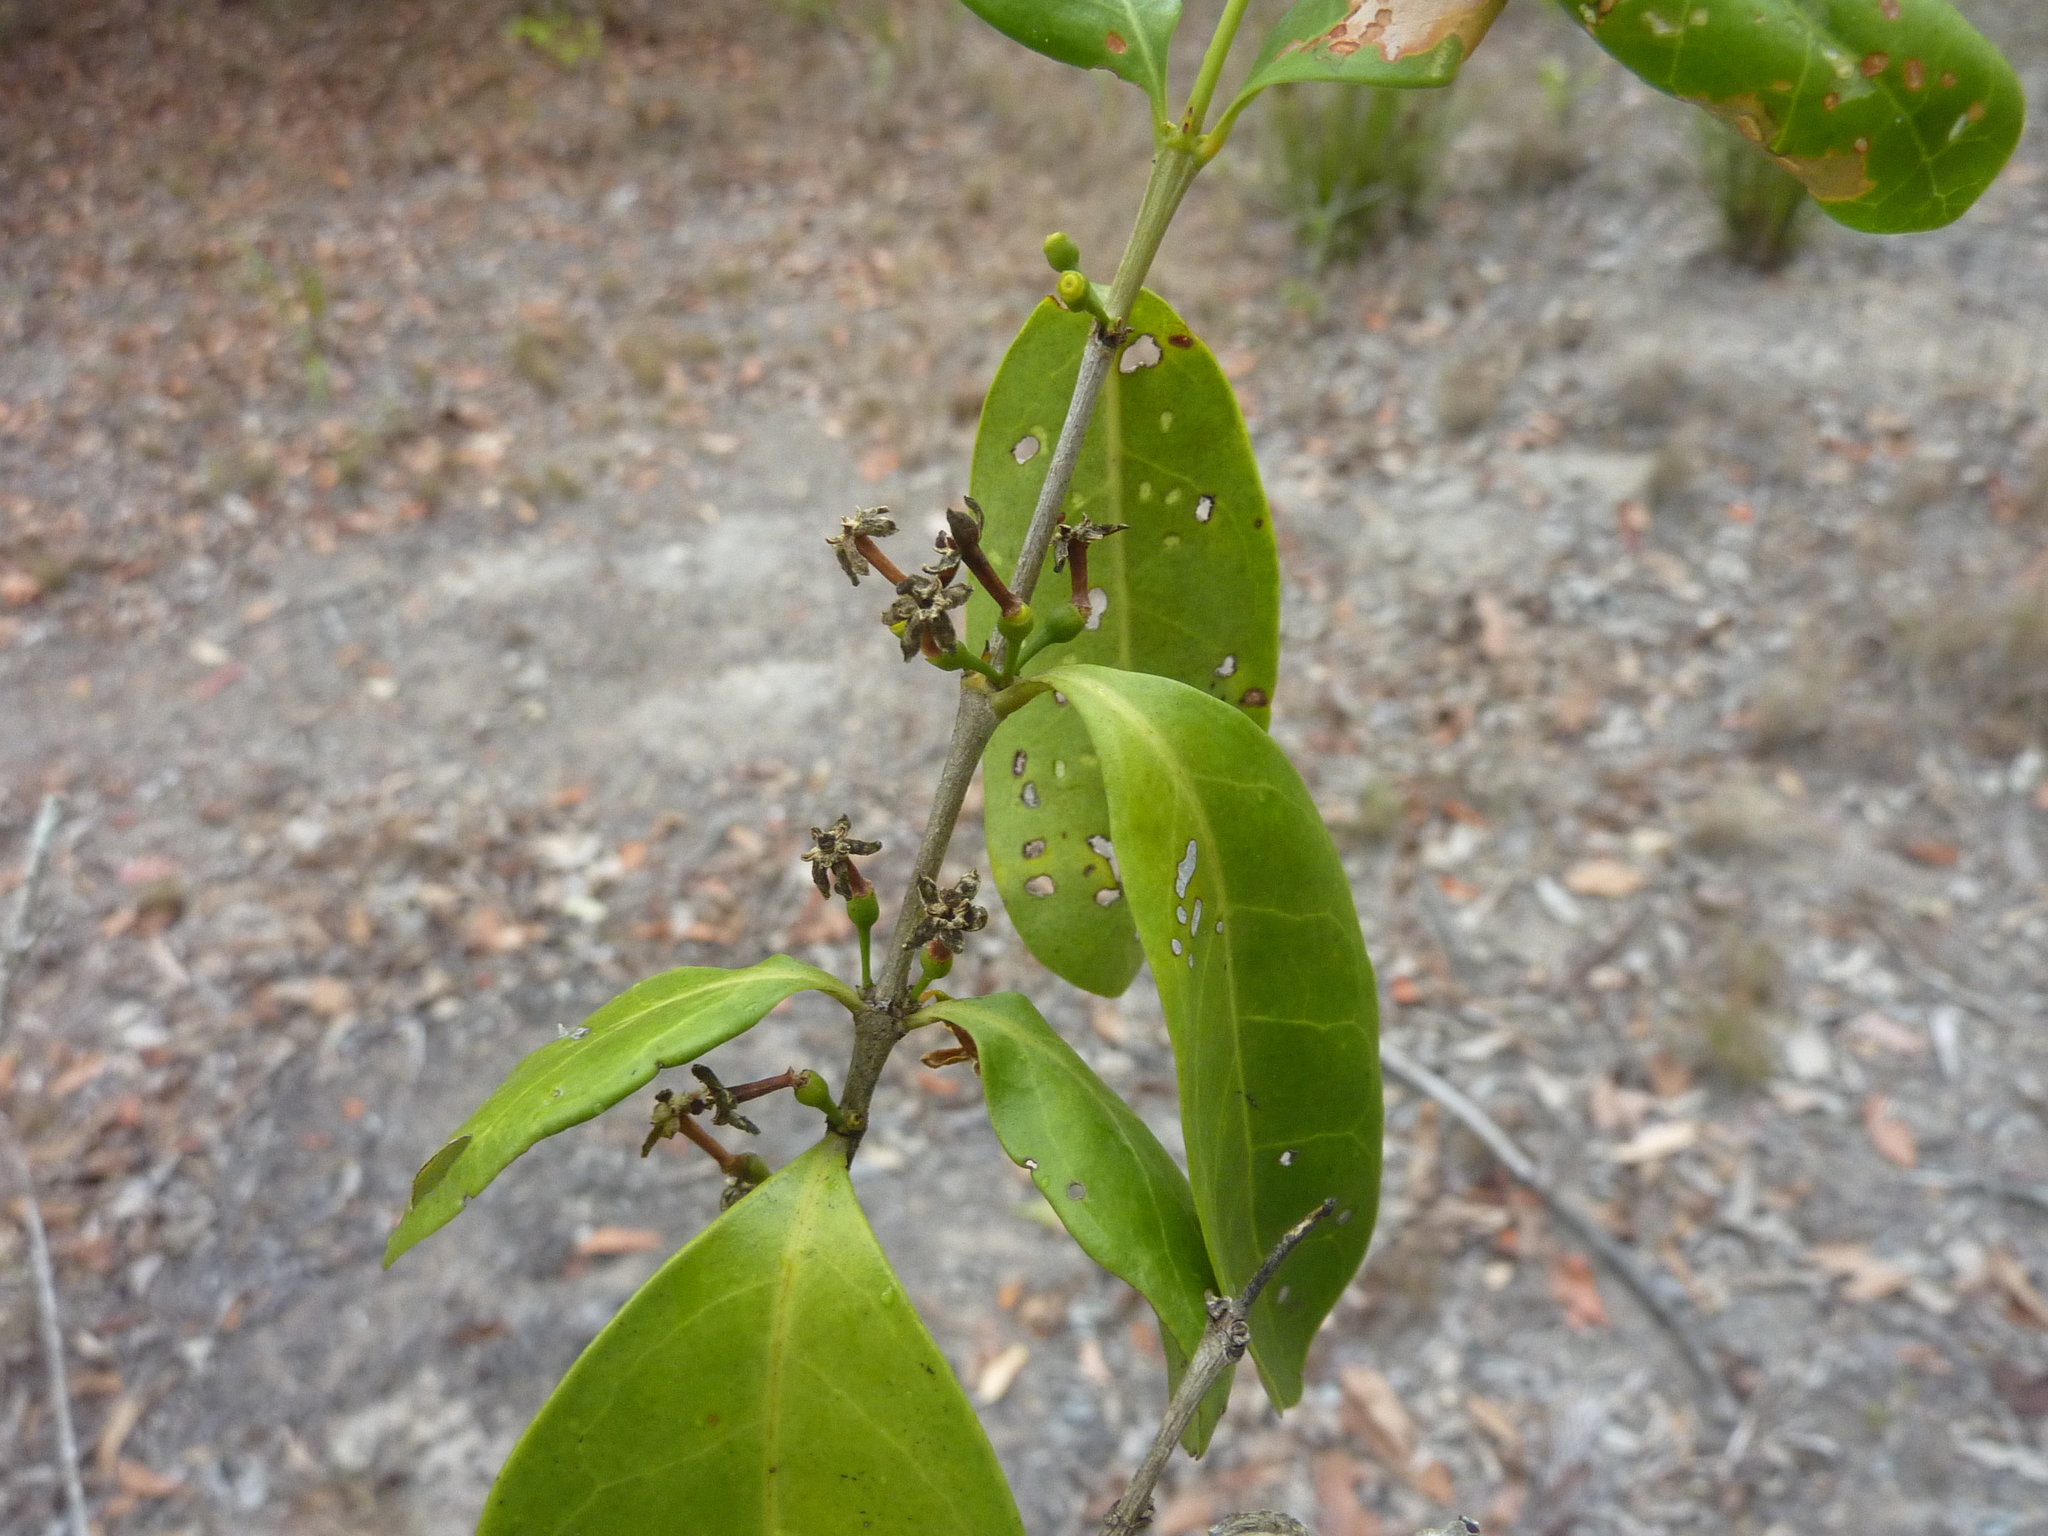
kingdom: Plantae
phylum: Tracheophyta
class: Magnoliopsida
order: Gentianales
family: Rubiaceae
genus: Cyclophyllum
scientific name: Cyclophyllum coprosmoides
